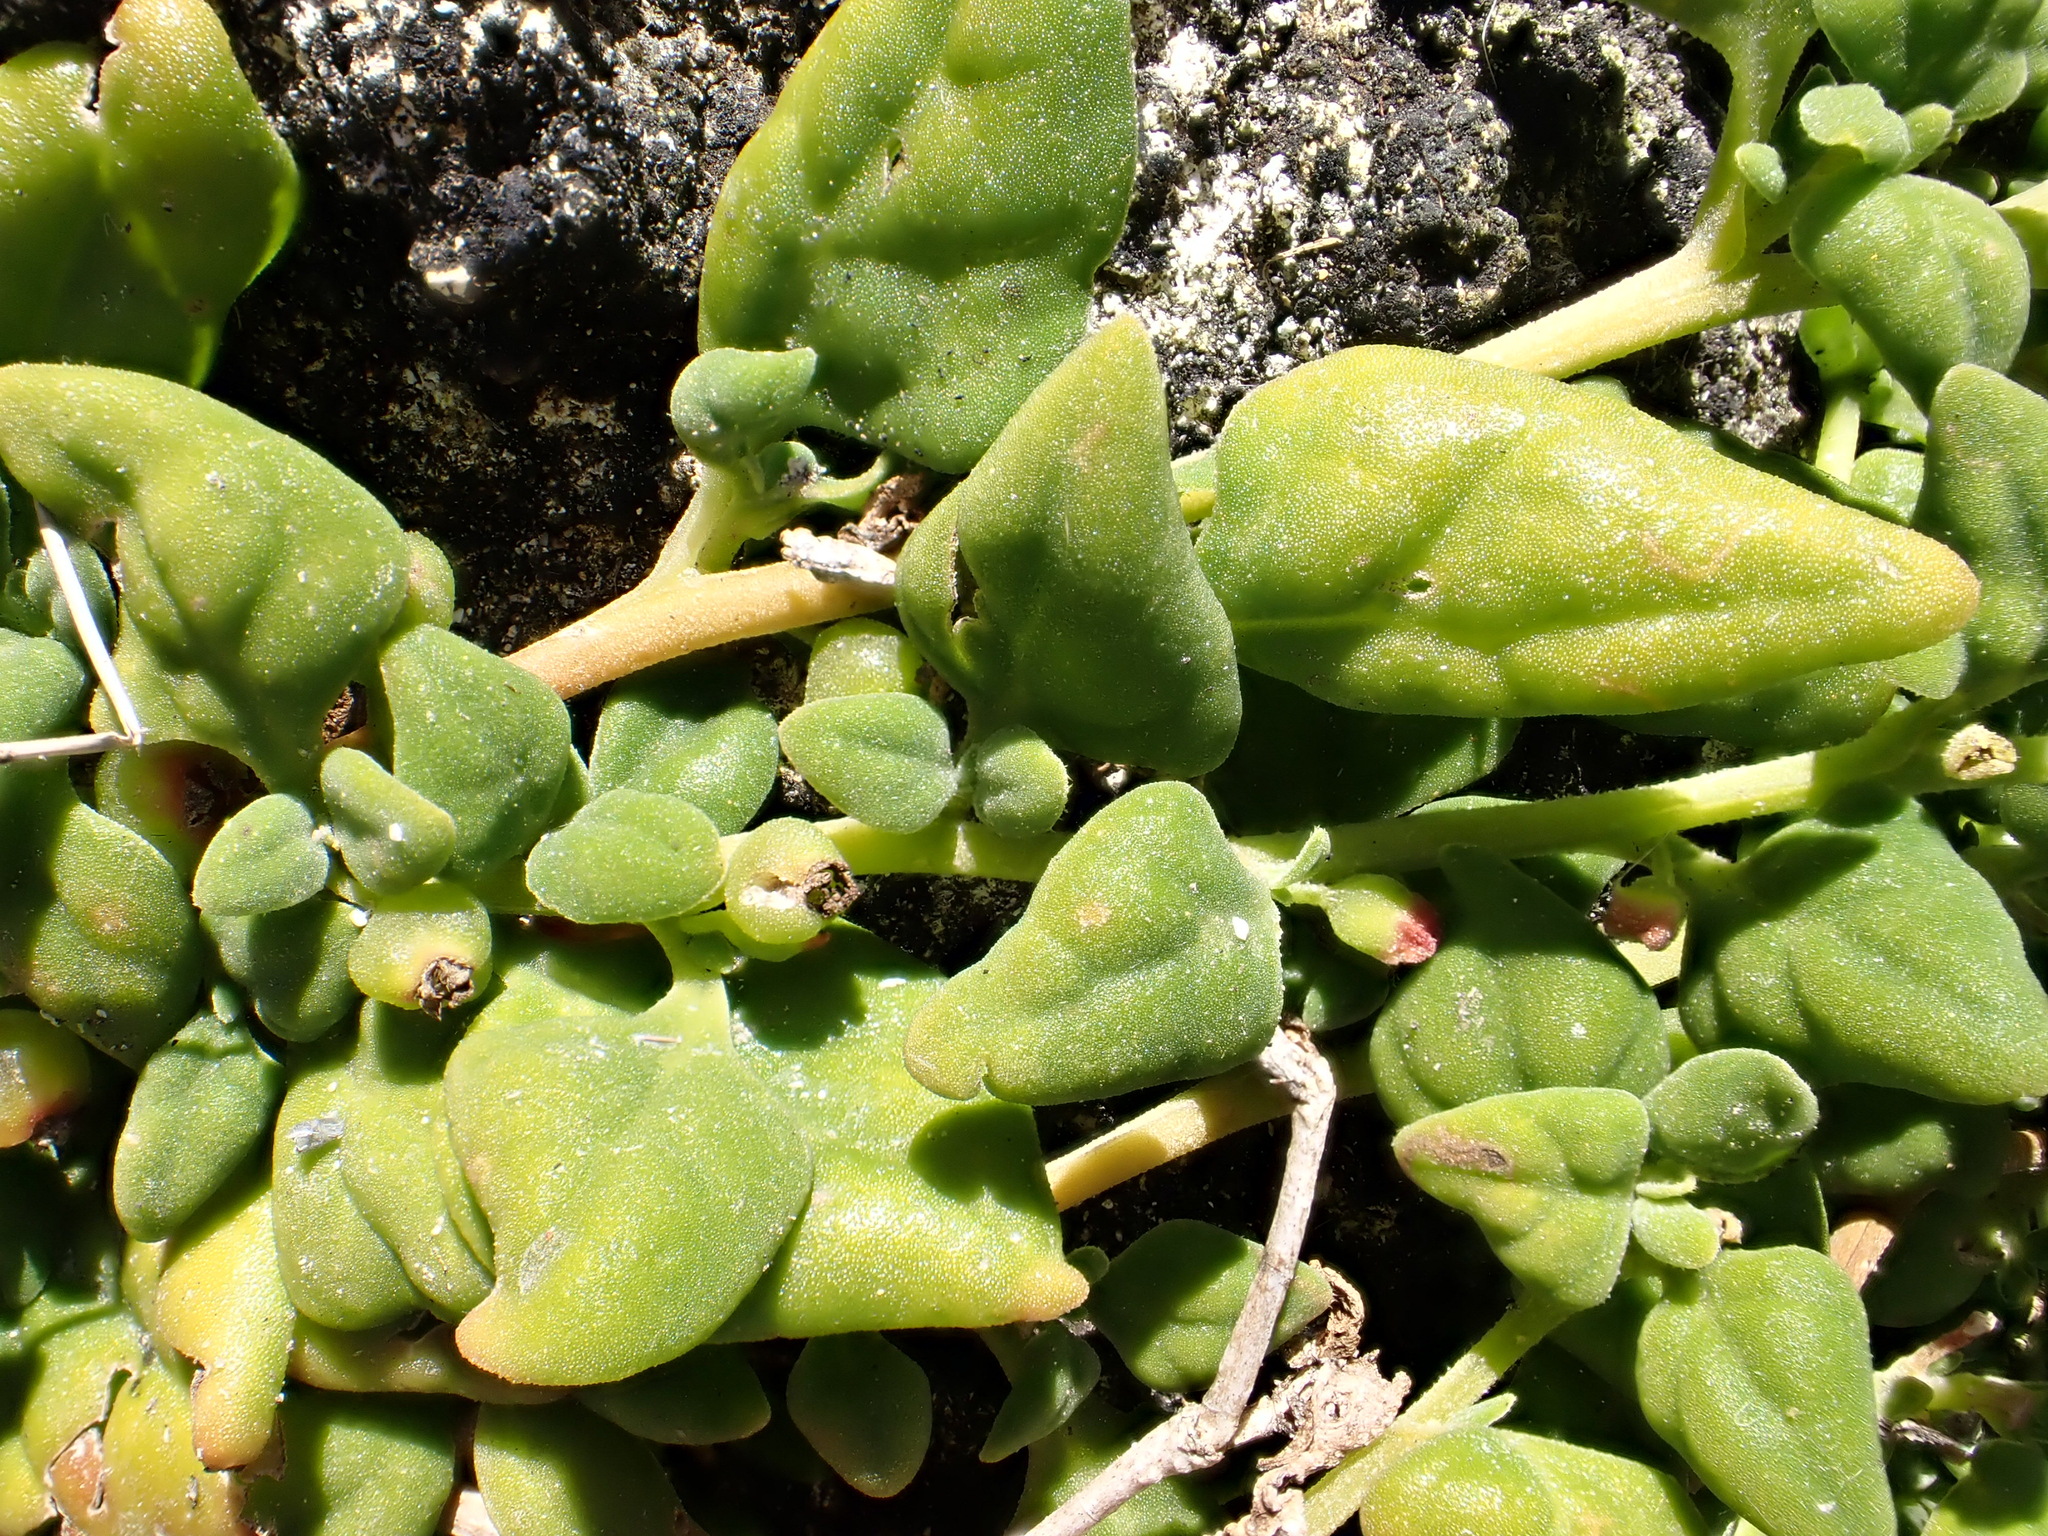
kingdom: Plantae
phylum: Tracheophyta
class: Magnoliopsida
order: Caryophyllales
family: Aizoaceae
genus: Tetragonia
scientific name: Tetragonia implexicoma
